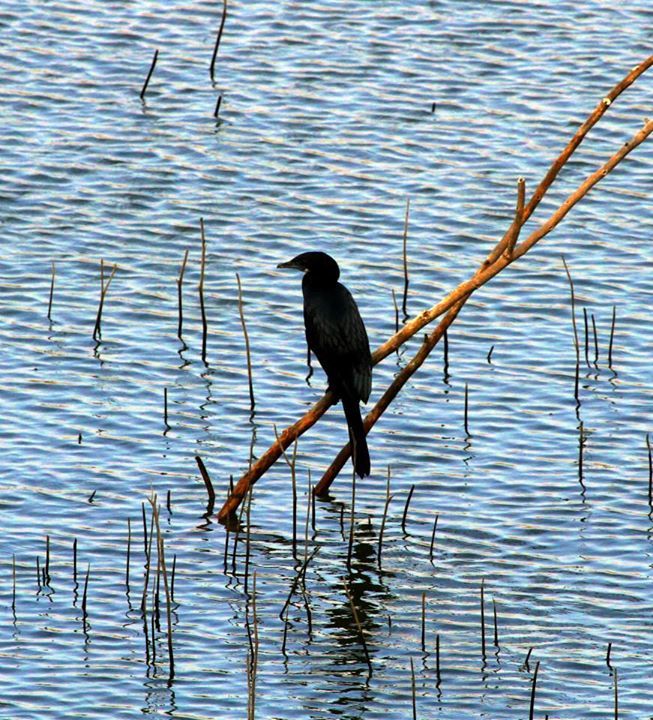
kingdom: Animalia
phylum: Chordata
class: Aves
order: Suliformes
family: Phalacrocoracidae
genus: Microcarbo
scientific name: Microcarbo niger
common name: Little cormorant
